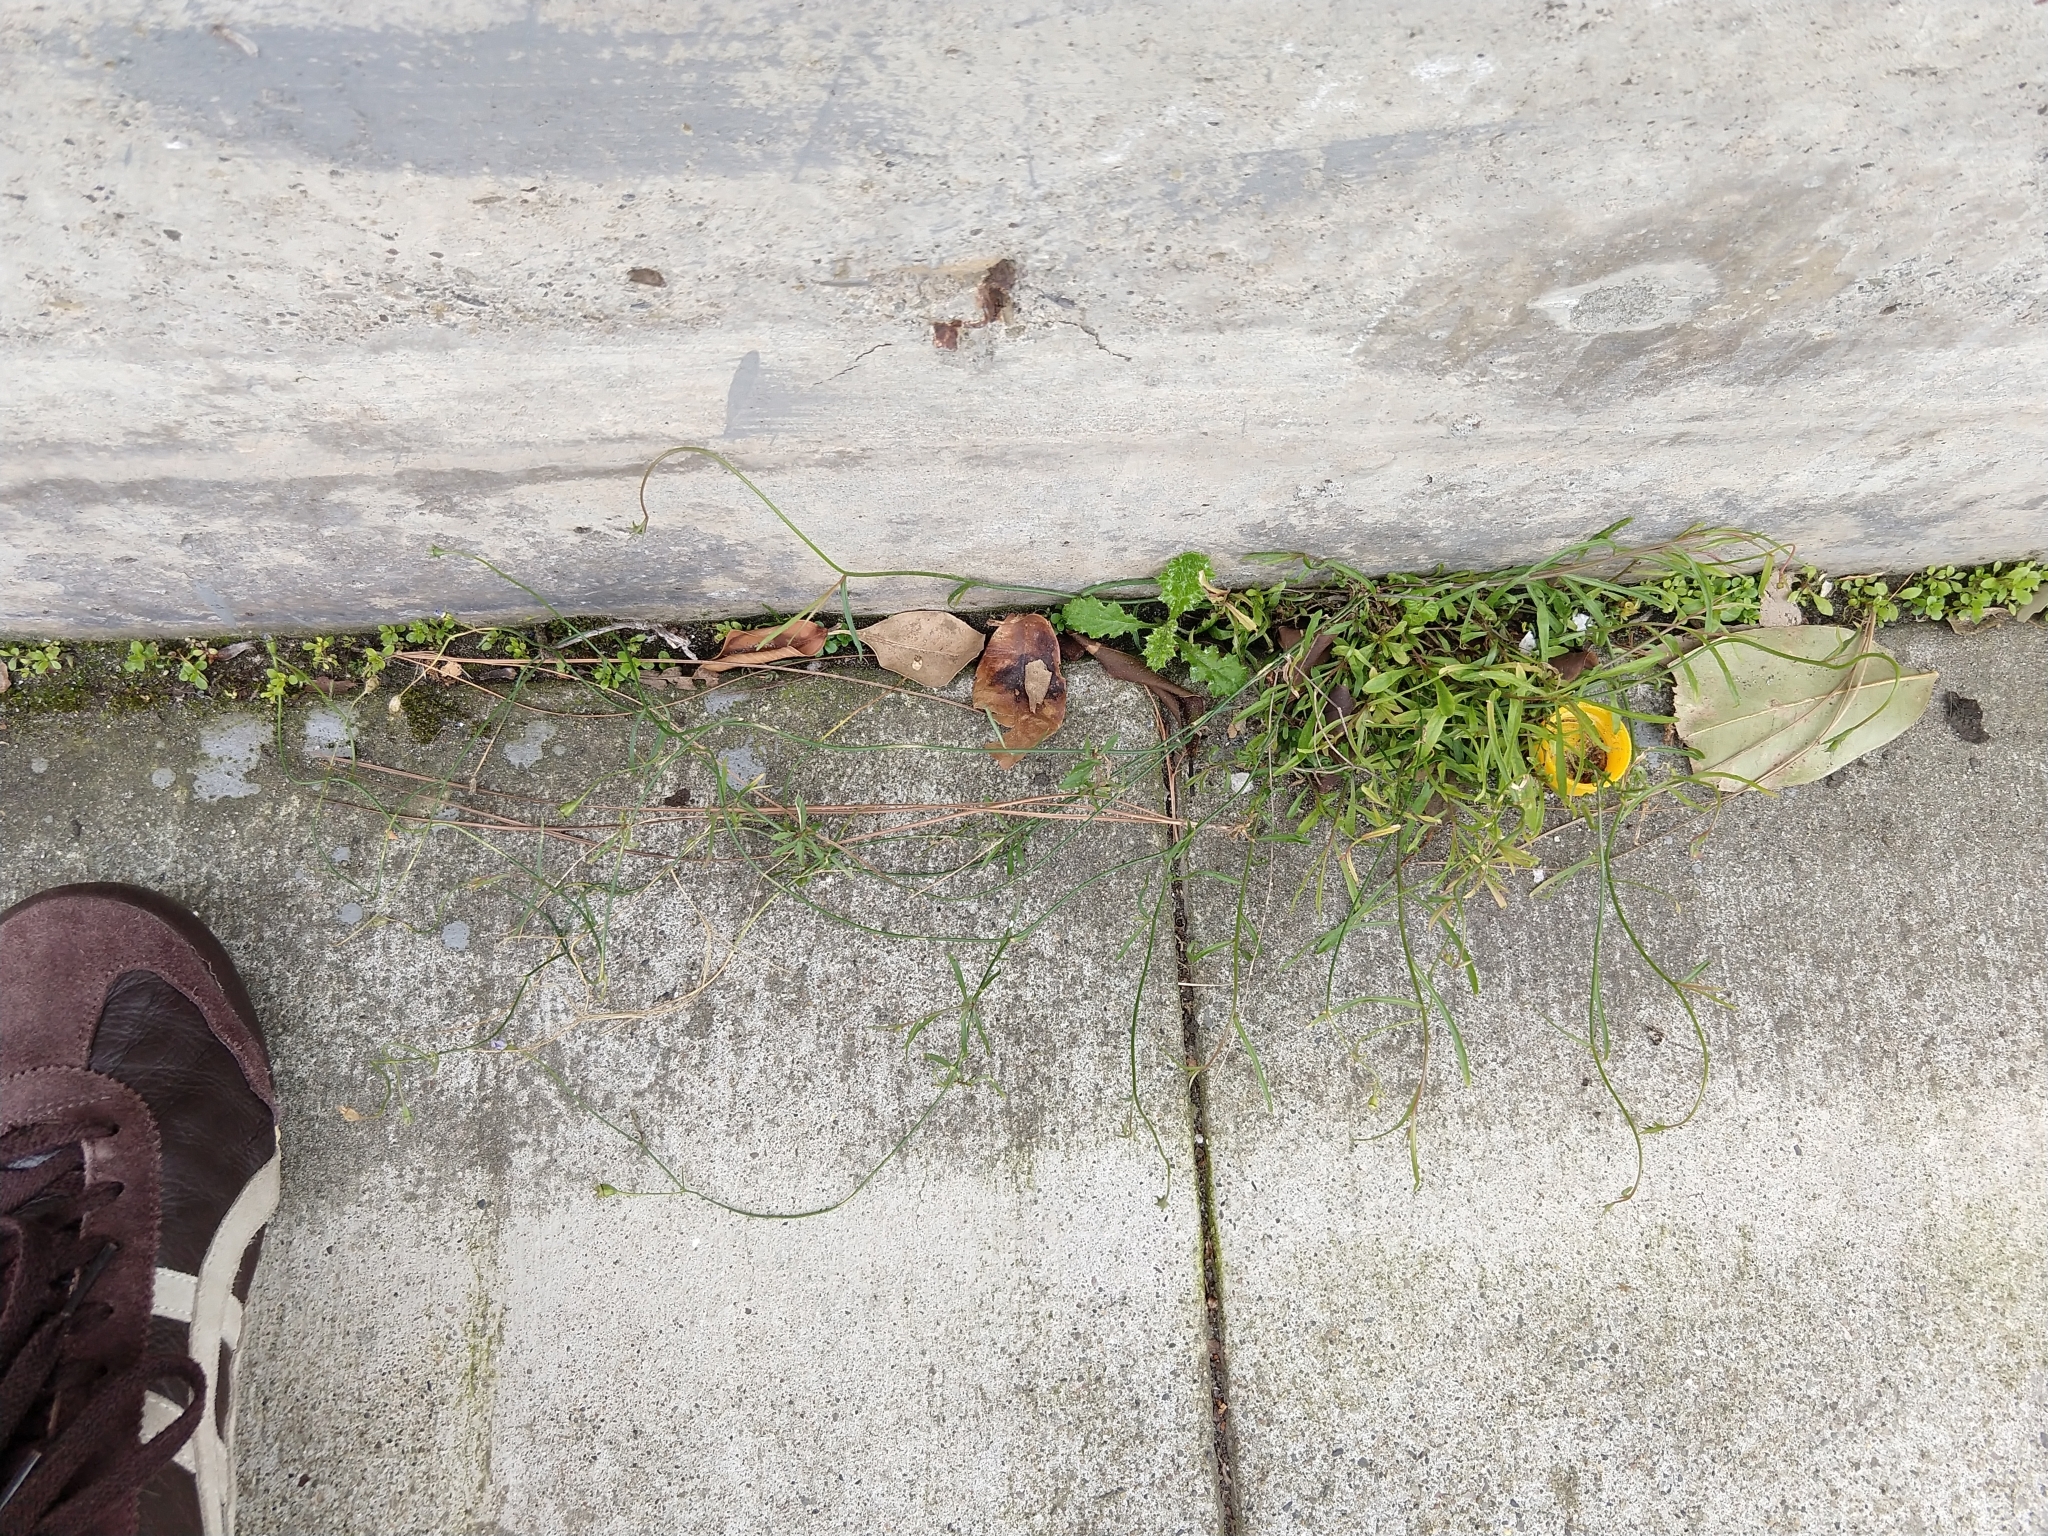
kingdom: Plantae
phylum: Tracheophyta
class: Magnoliopsida
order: Asterales
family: Campanulaceae
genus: Wahlenbergia
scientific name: Wahlenbergia marginata
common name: Southern rockbell
